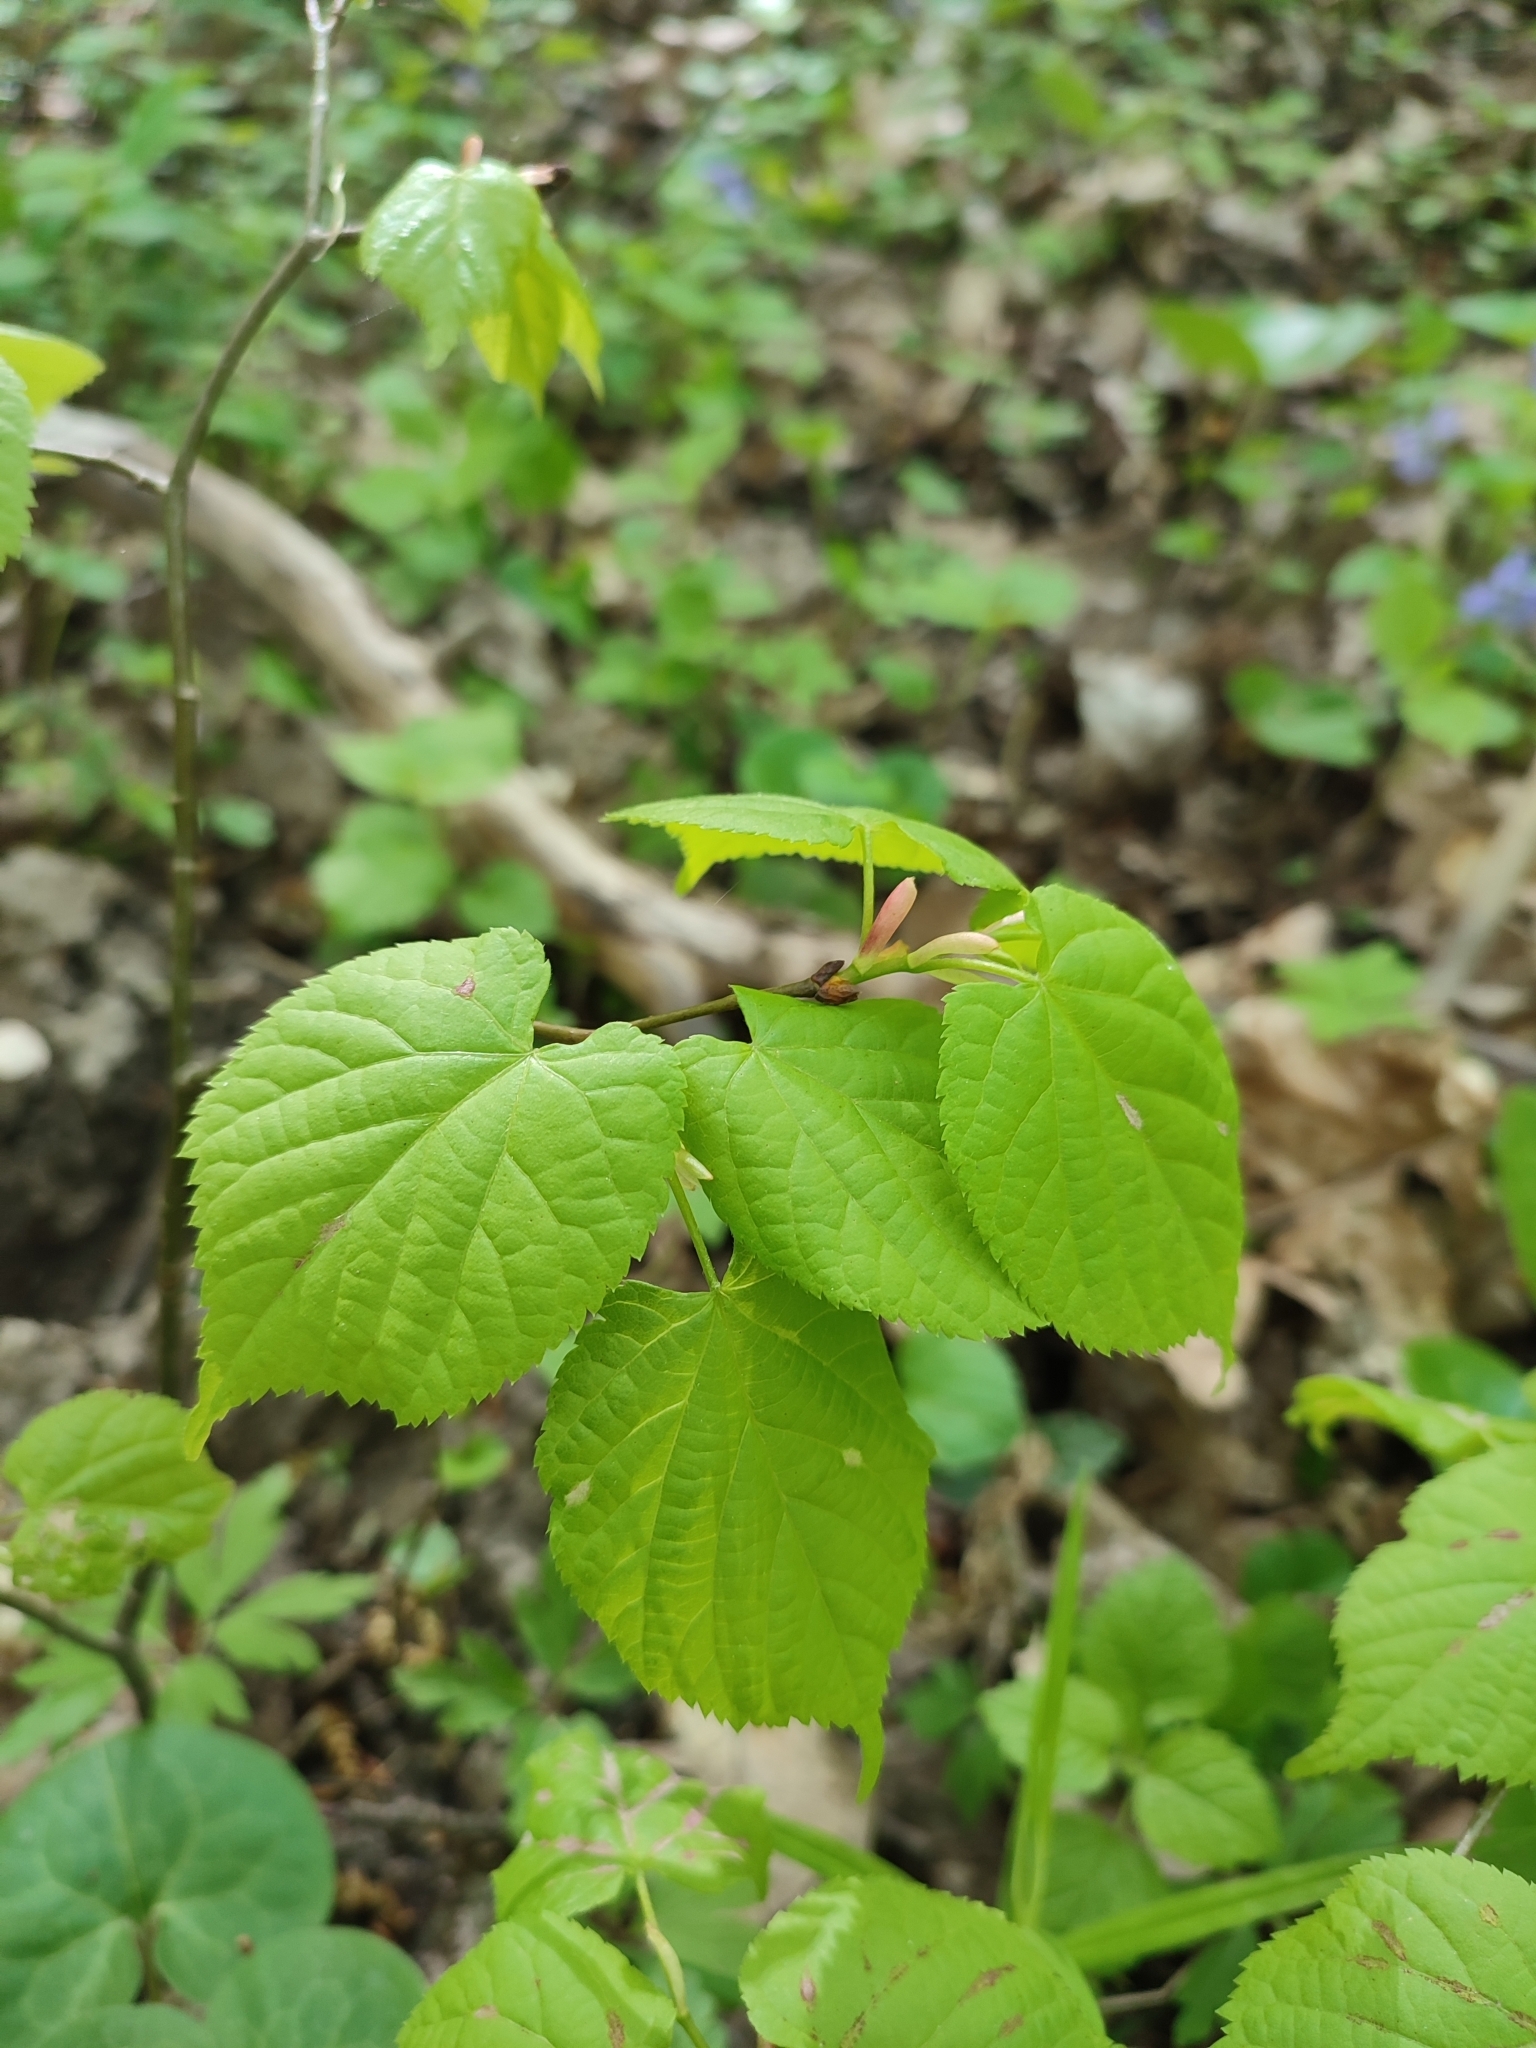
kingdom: Plantae
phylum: Tracheophyta
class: Magnoliopsida
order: Malvales
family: Malvaceae
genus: Tilia
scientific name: Tilia cordata
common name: Small-leaved lime
